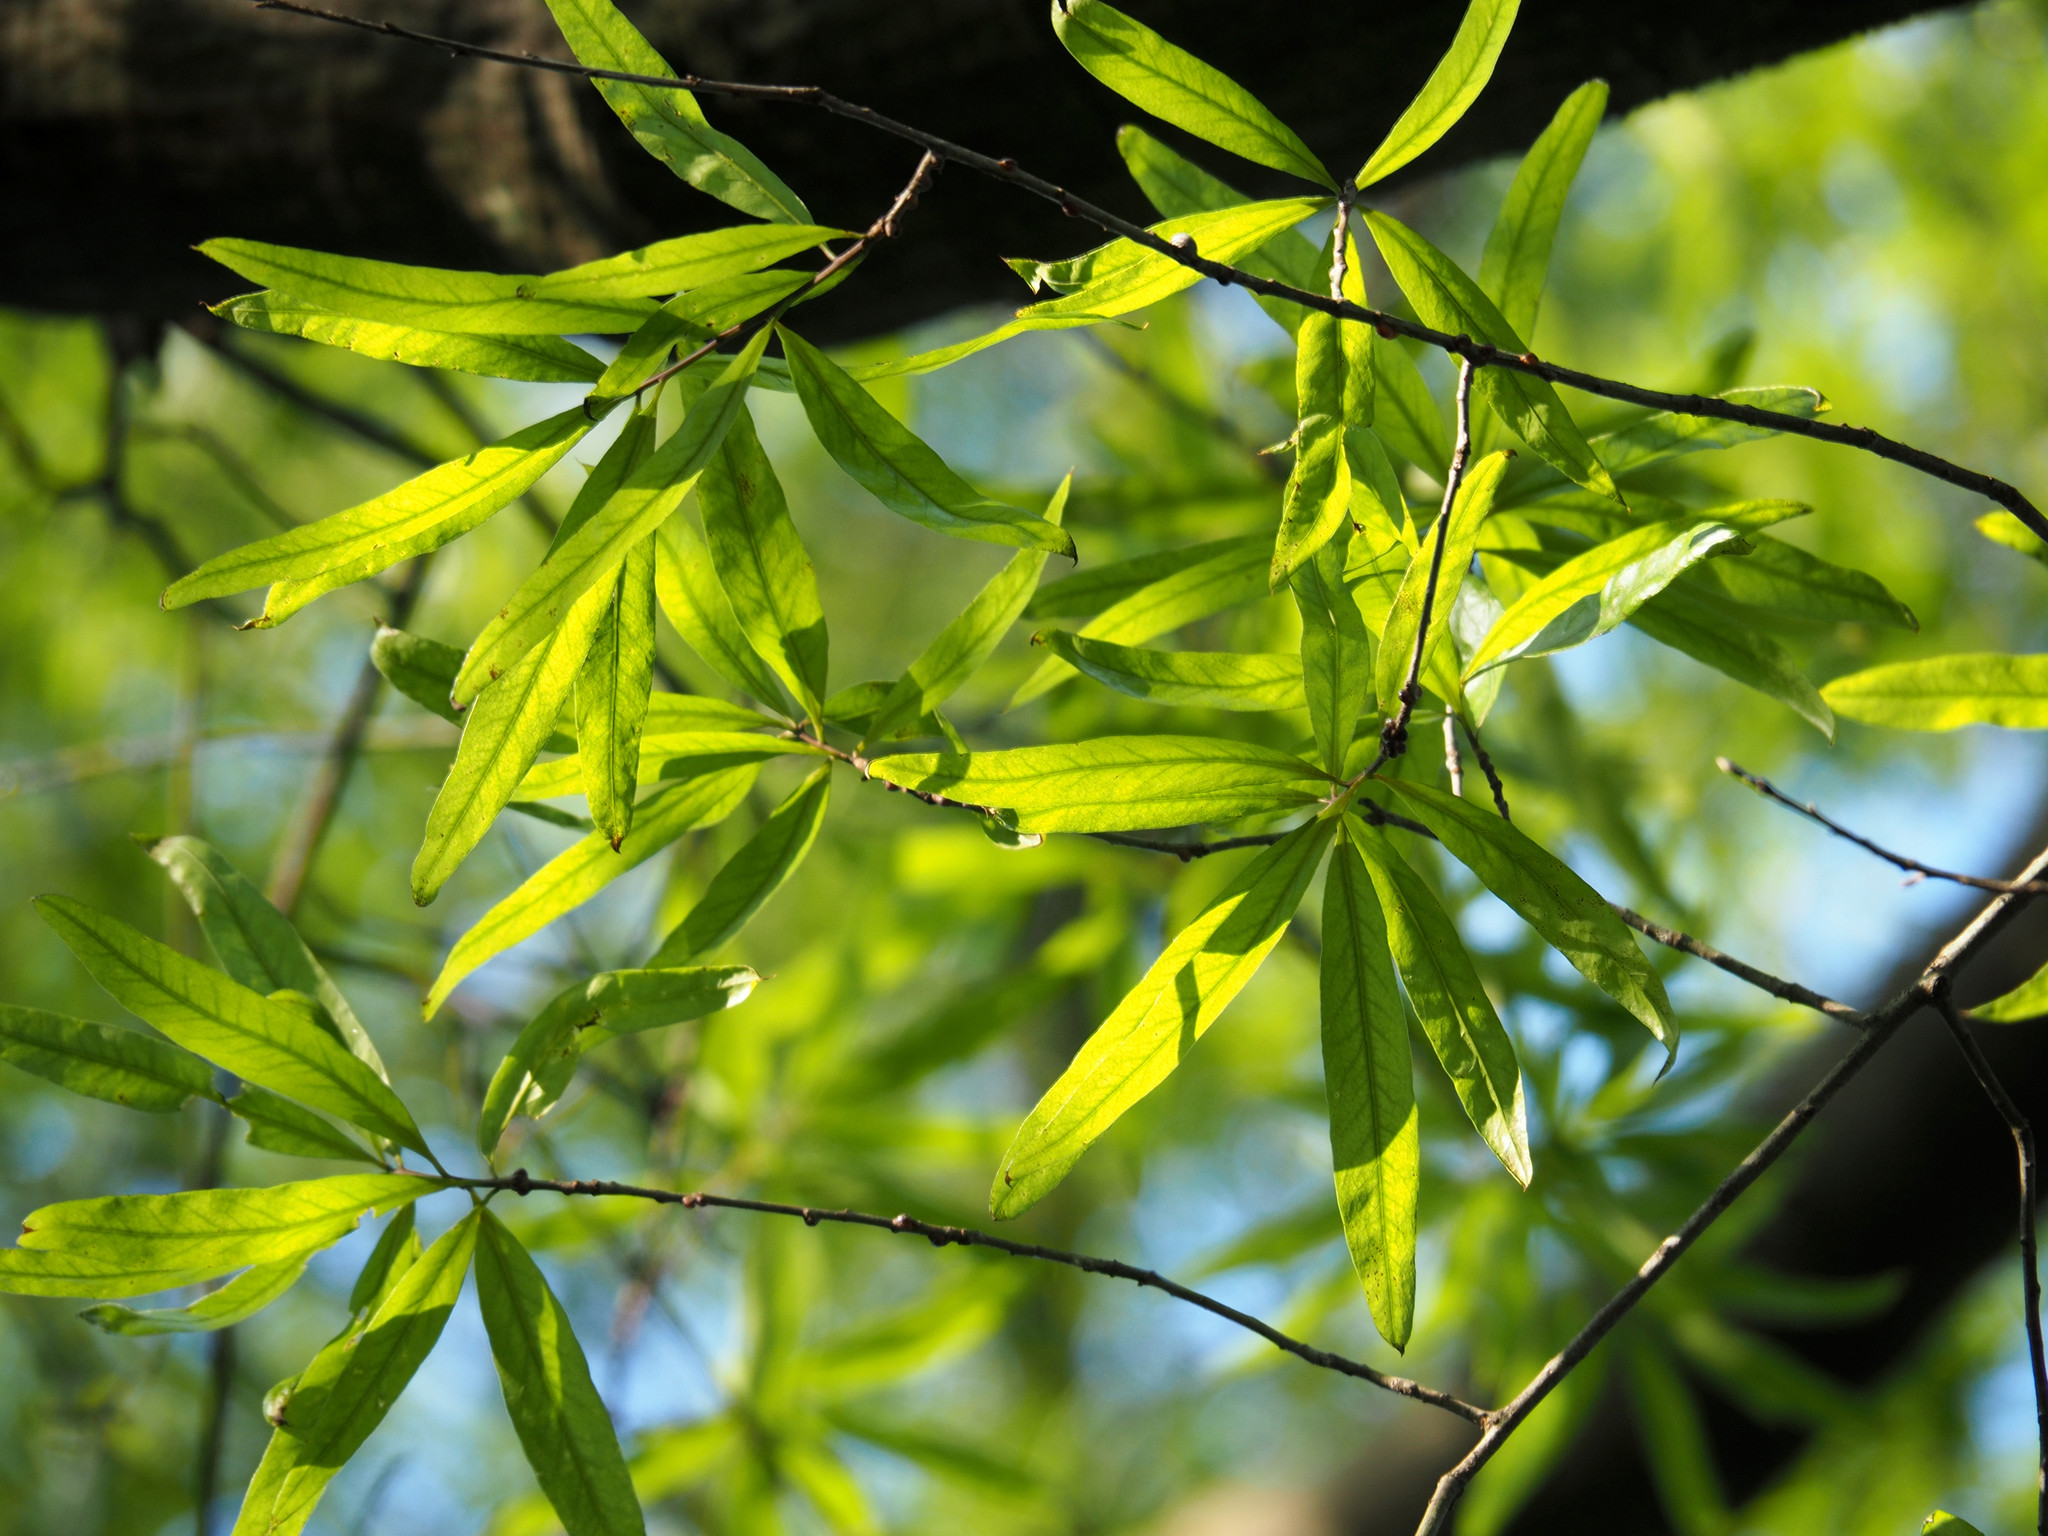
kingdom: Plantae
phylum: Tracheophyta
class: Magnoliopsida
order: Fagales
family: Fagaceae
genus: Quercus
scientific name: Quercus phellos
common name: Willow oak
